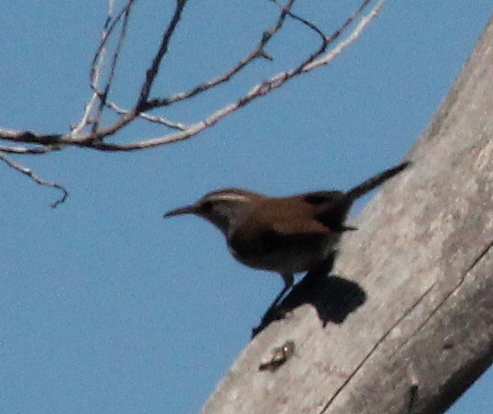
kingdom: Animalia
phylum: Chordata
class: Aves
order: Passeriformes
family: Troglodytidae
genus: Thryomanes
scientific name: Thryomanes bewickii
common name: Bewick's wren
